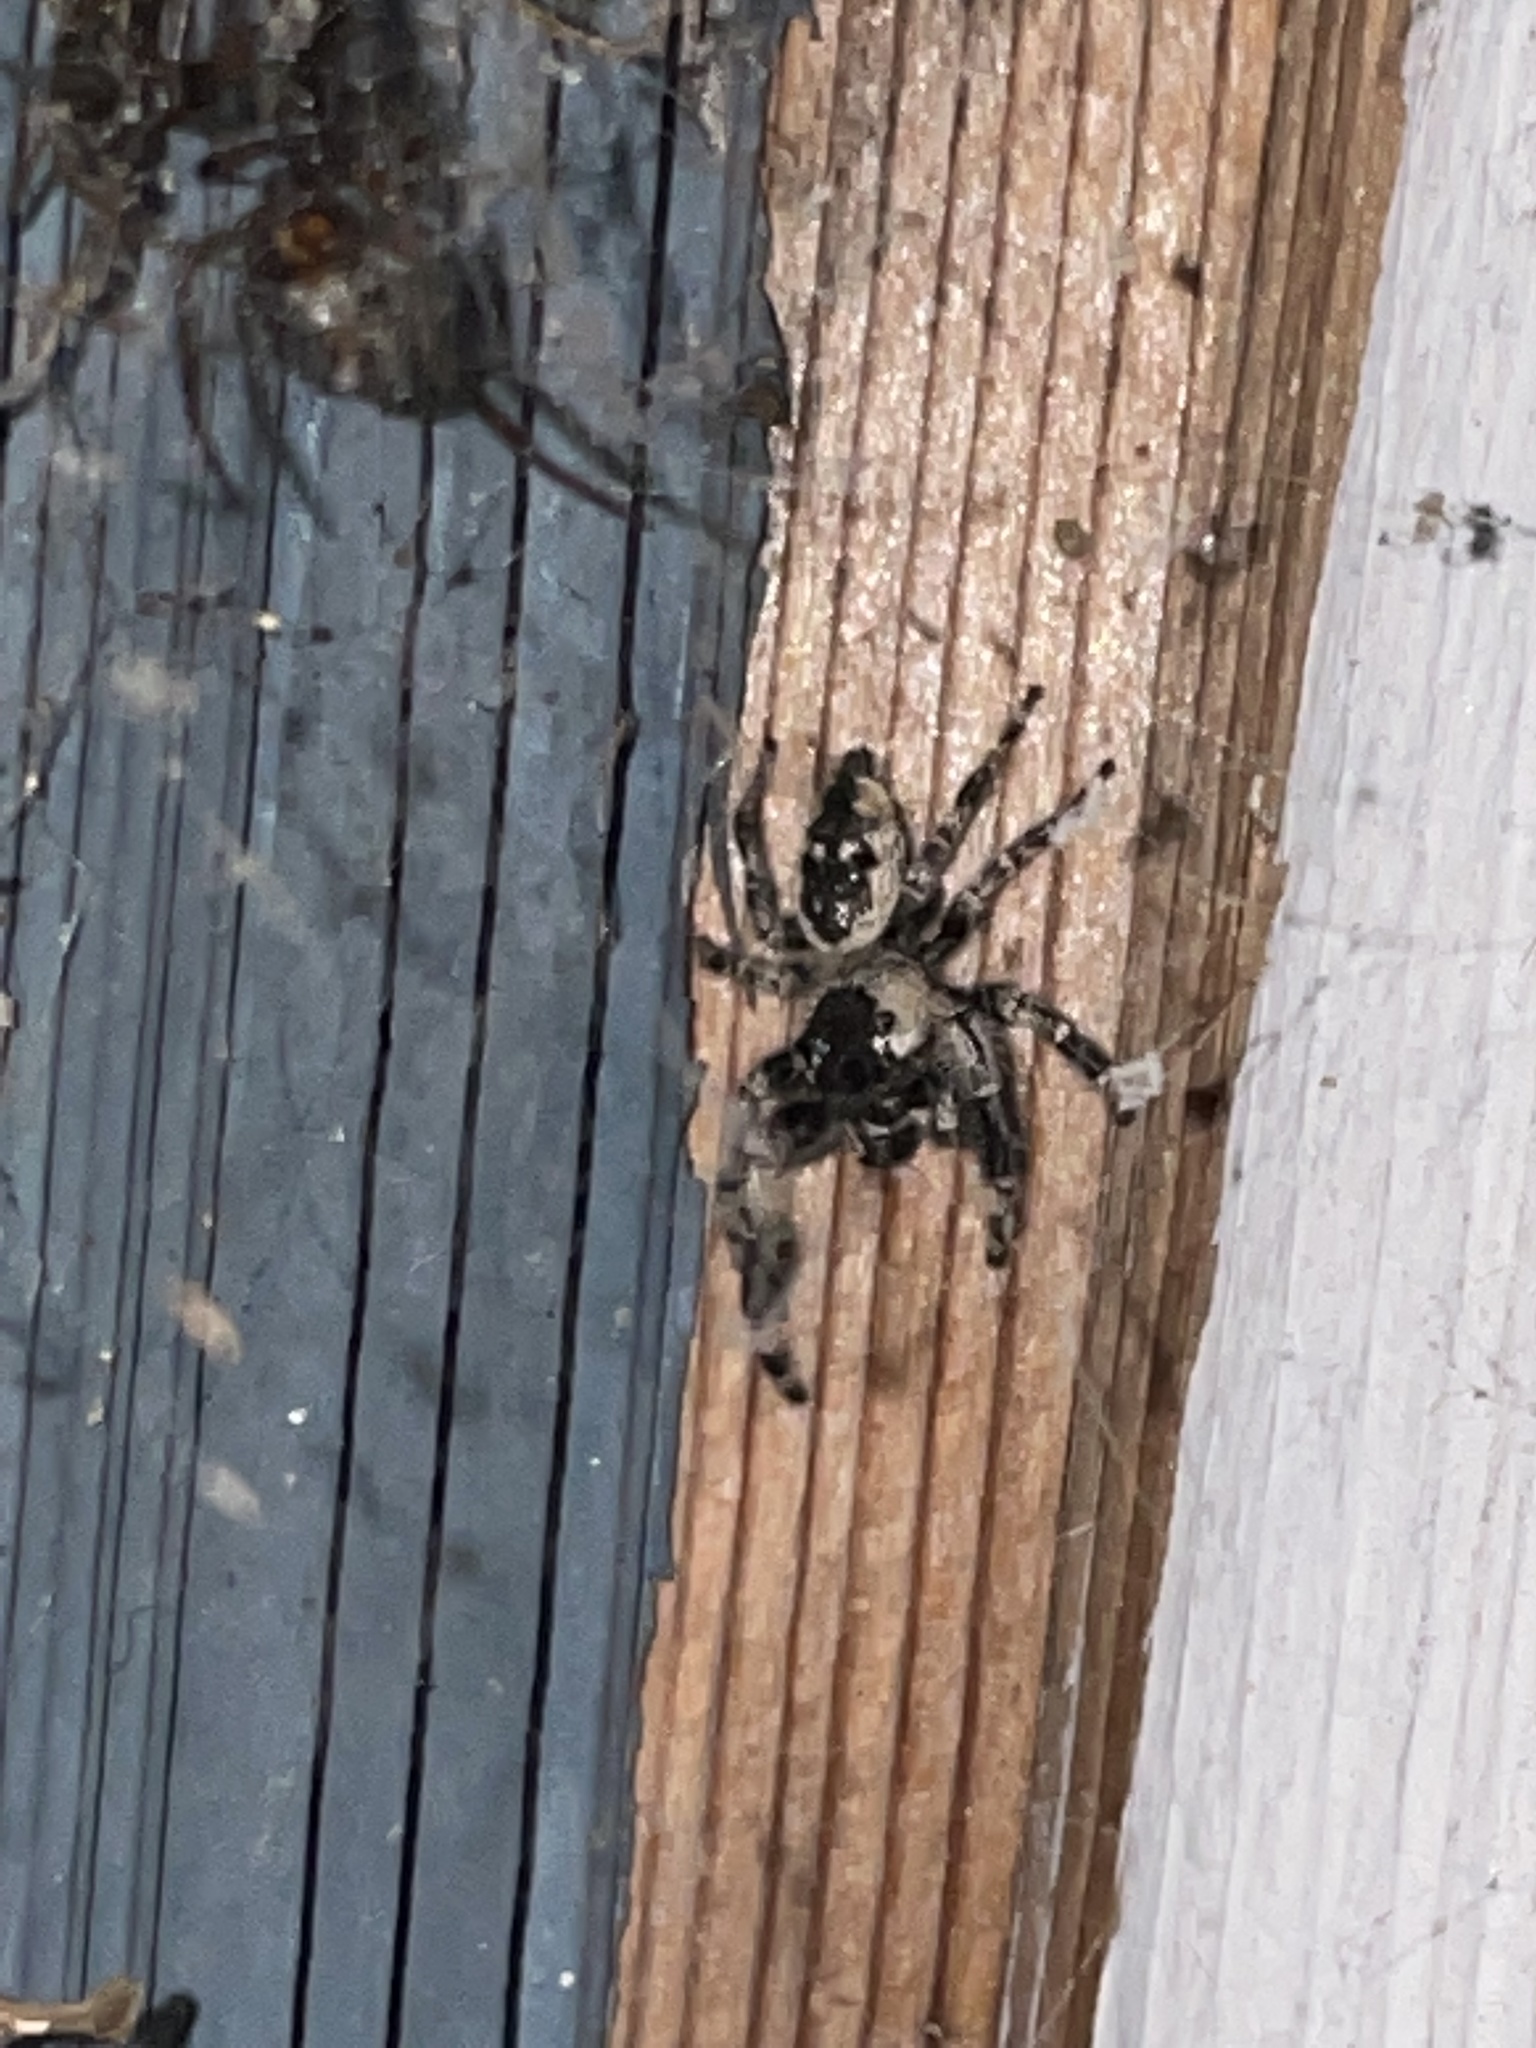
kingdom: Animalia
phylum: Arthropoda
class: Arachnida
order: Araneae
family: Salticidae
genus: Phidippus
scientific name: Phidippus otiosus
